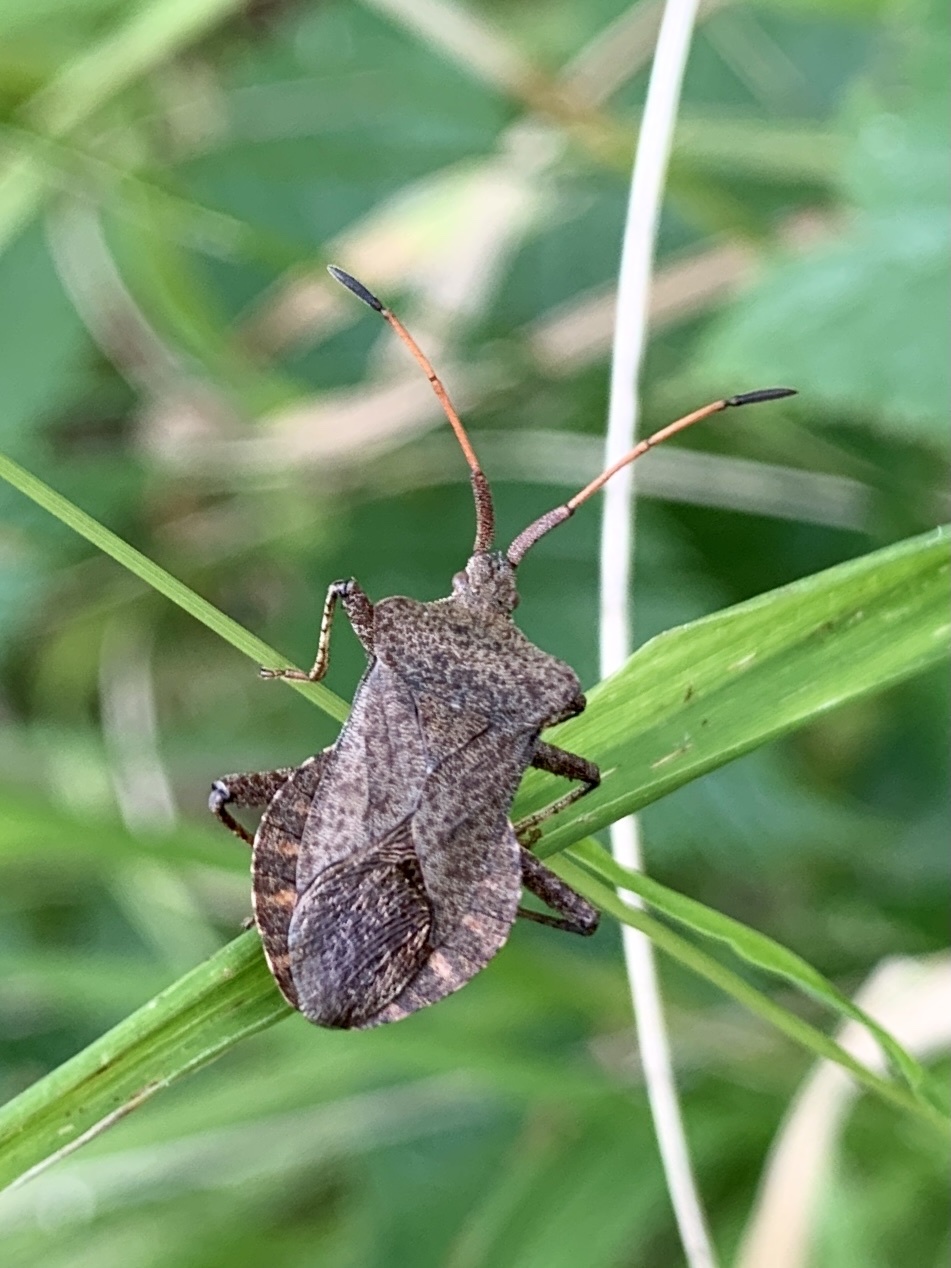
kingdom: Animalia
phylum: Arthropoda
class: Insecta
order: Hemiptera
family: Coreidae
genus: Coreus
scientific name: Coreus marginatus
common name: Dock bug
